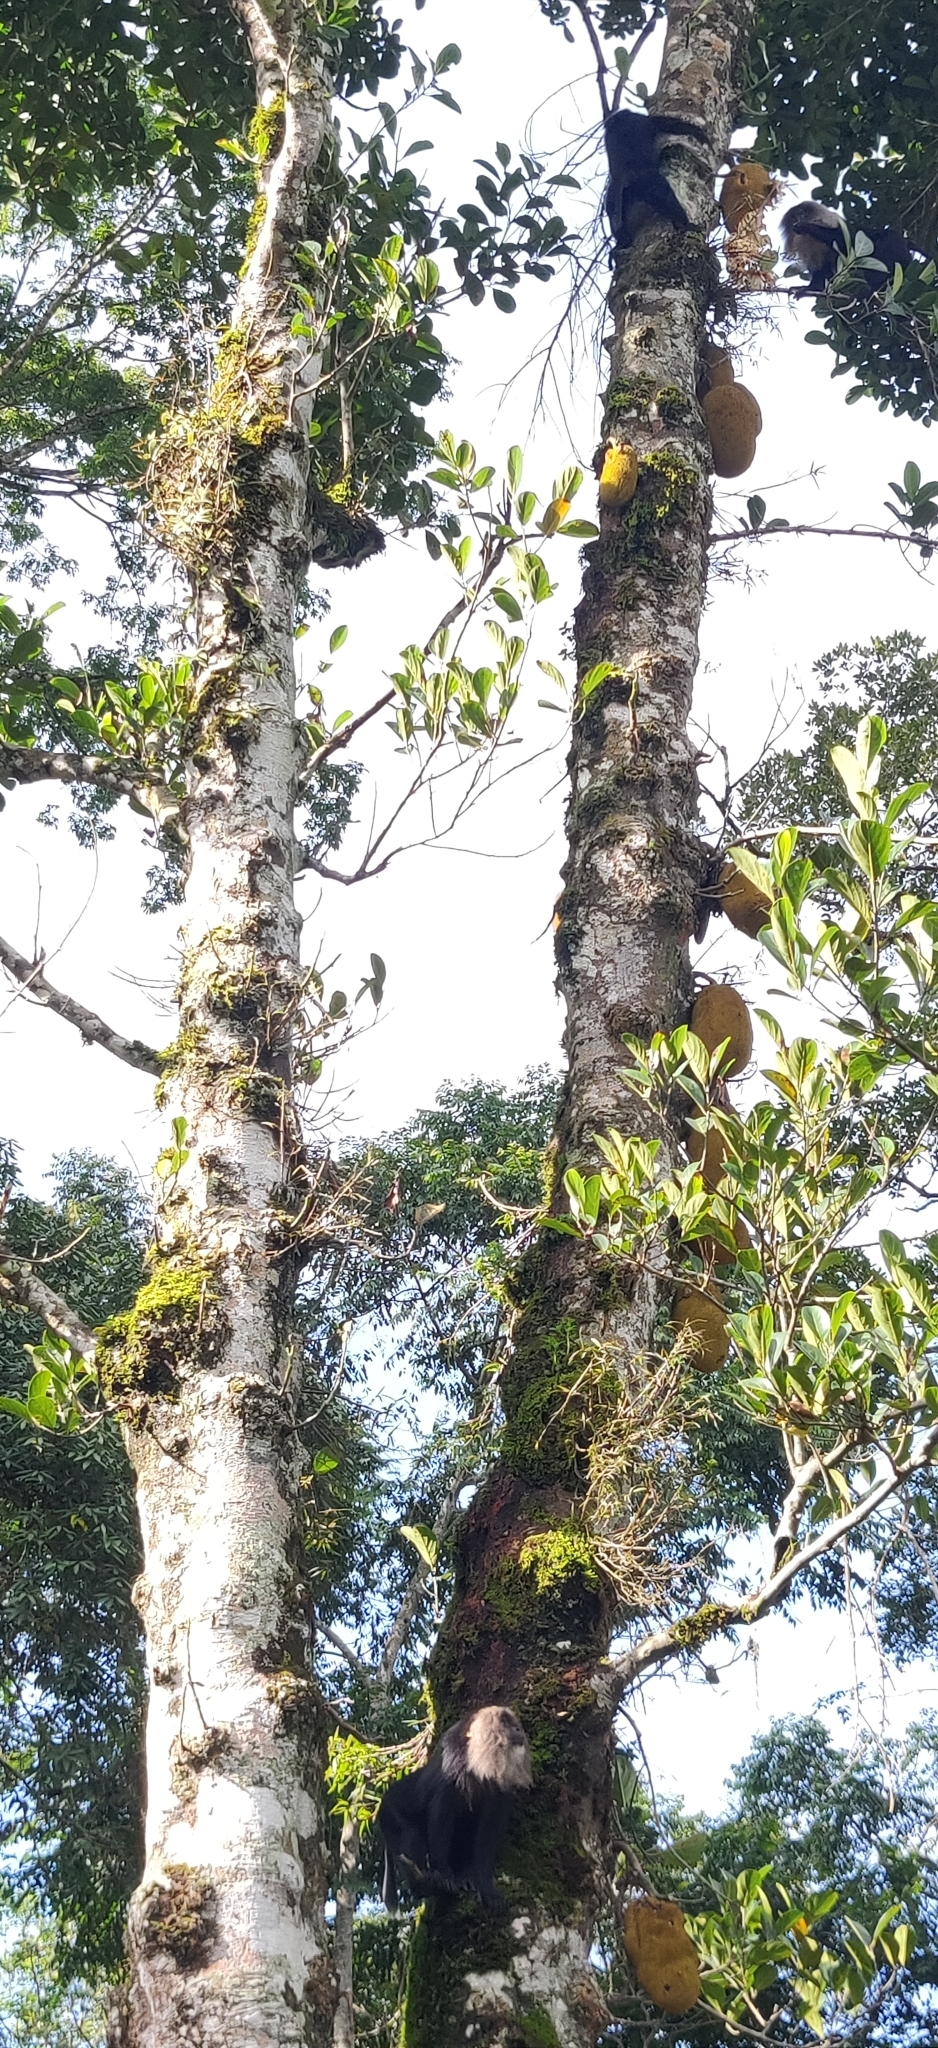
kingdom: Animalia
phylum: Chordata
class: Mammalia
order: Primates
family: Cercopithecidae
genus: Macaca
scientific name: Macaca silenus
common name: Lion-tailed macaque
